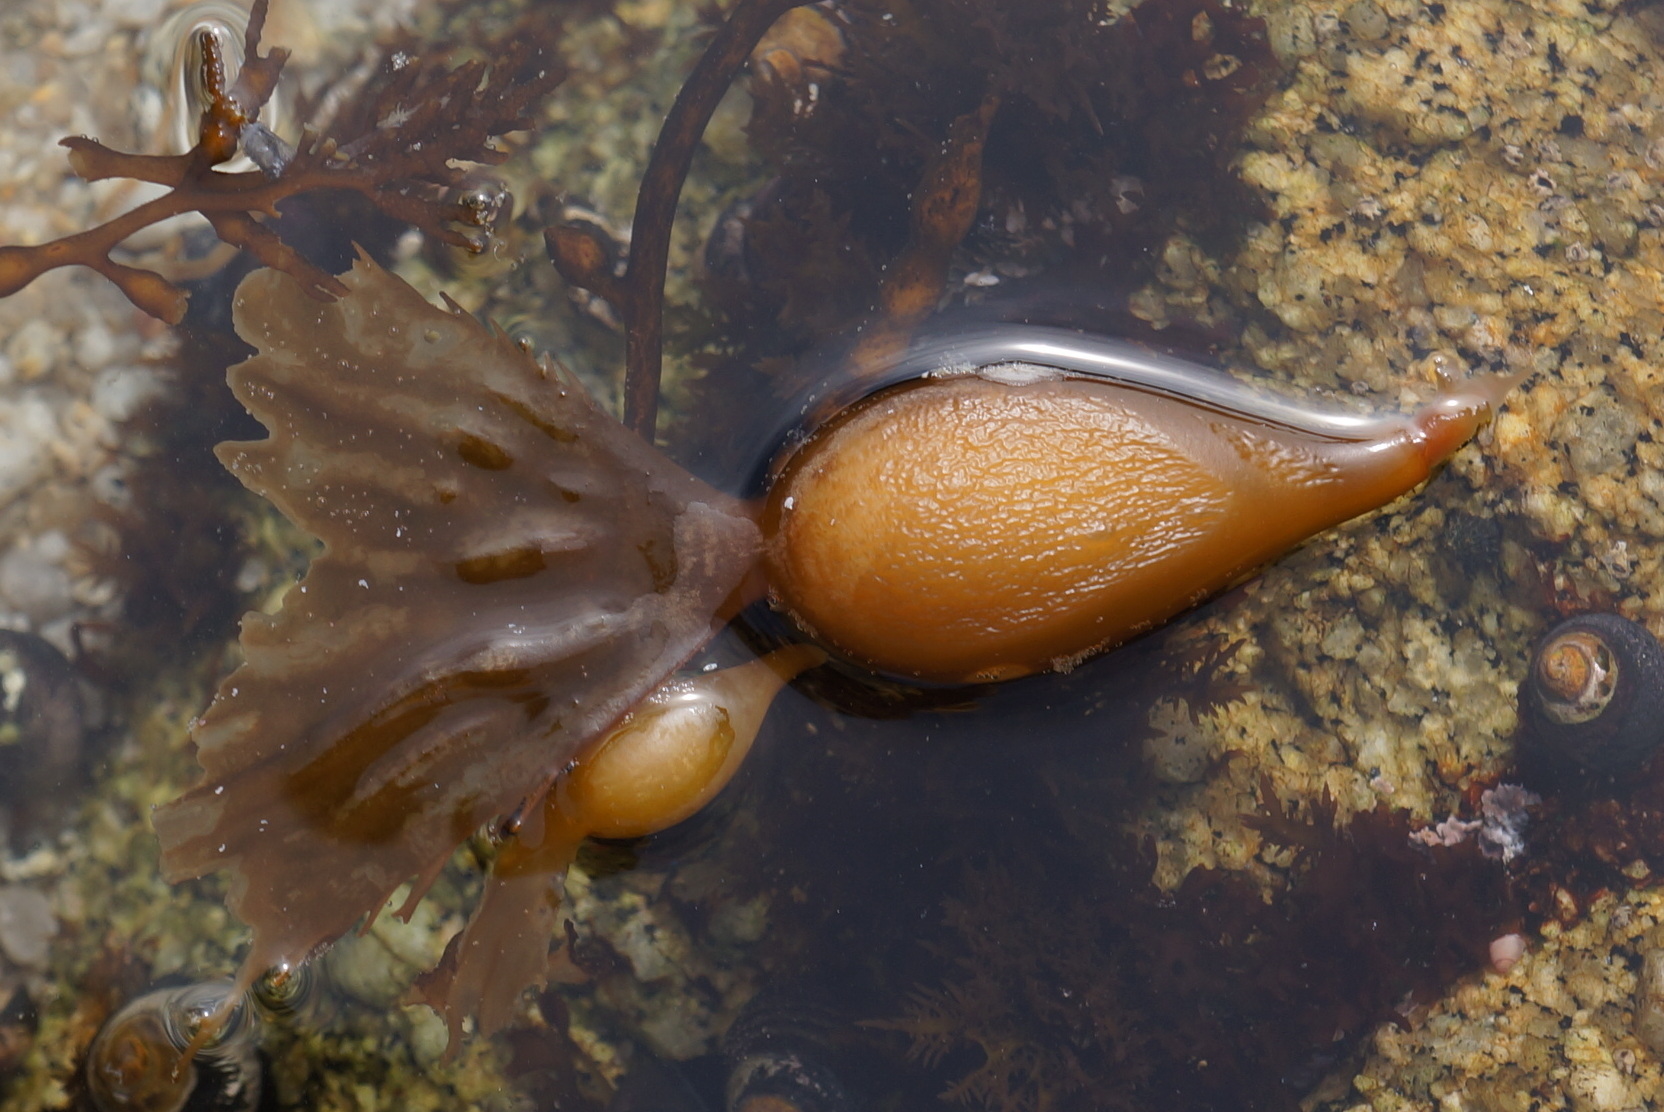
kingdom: Chromista
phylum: Ochrophyta
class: Phaeophyceae
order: Laminariales
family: Laminariaceae
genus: Macrocystis
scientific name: Macrocystis pyrifera
